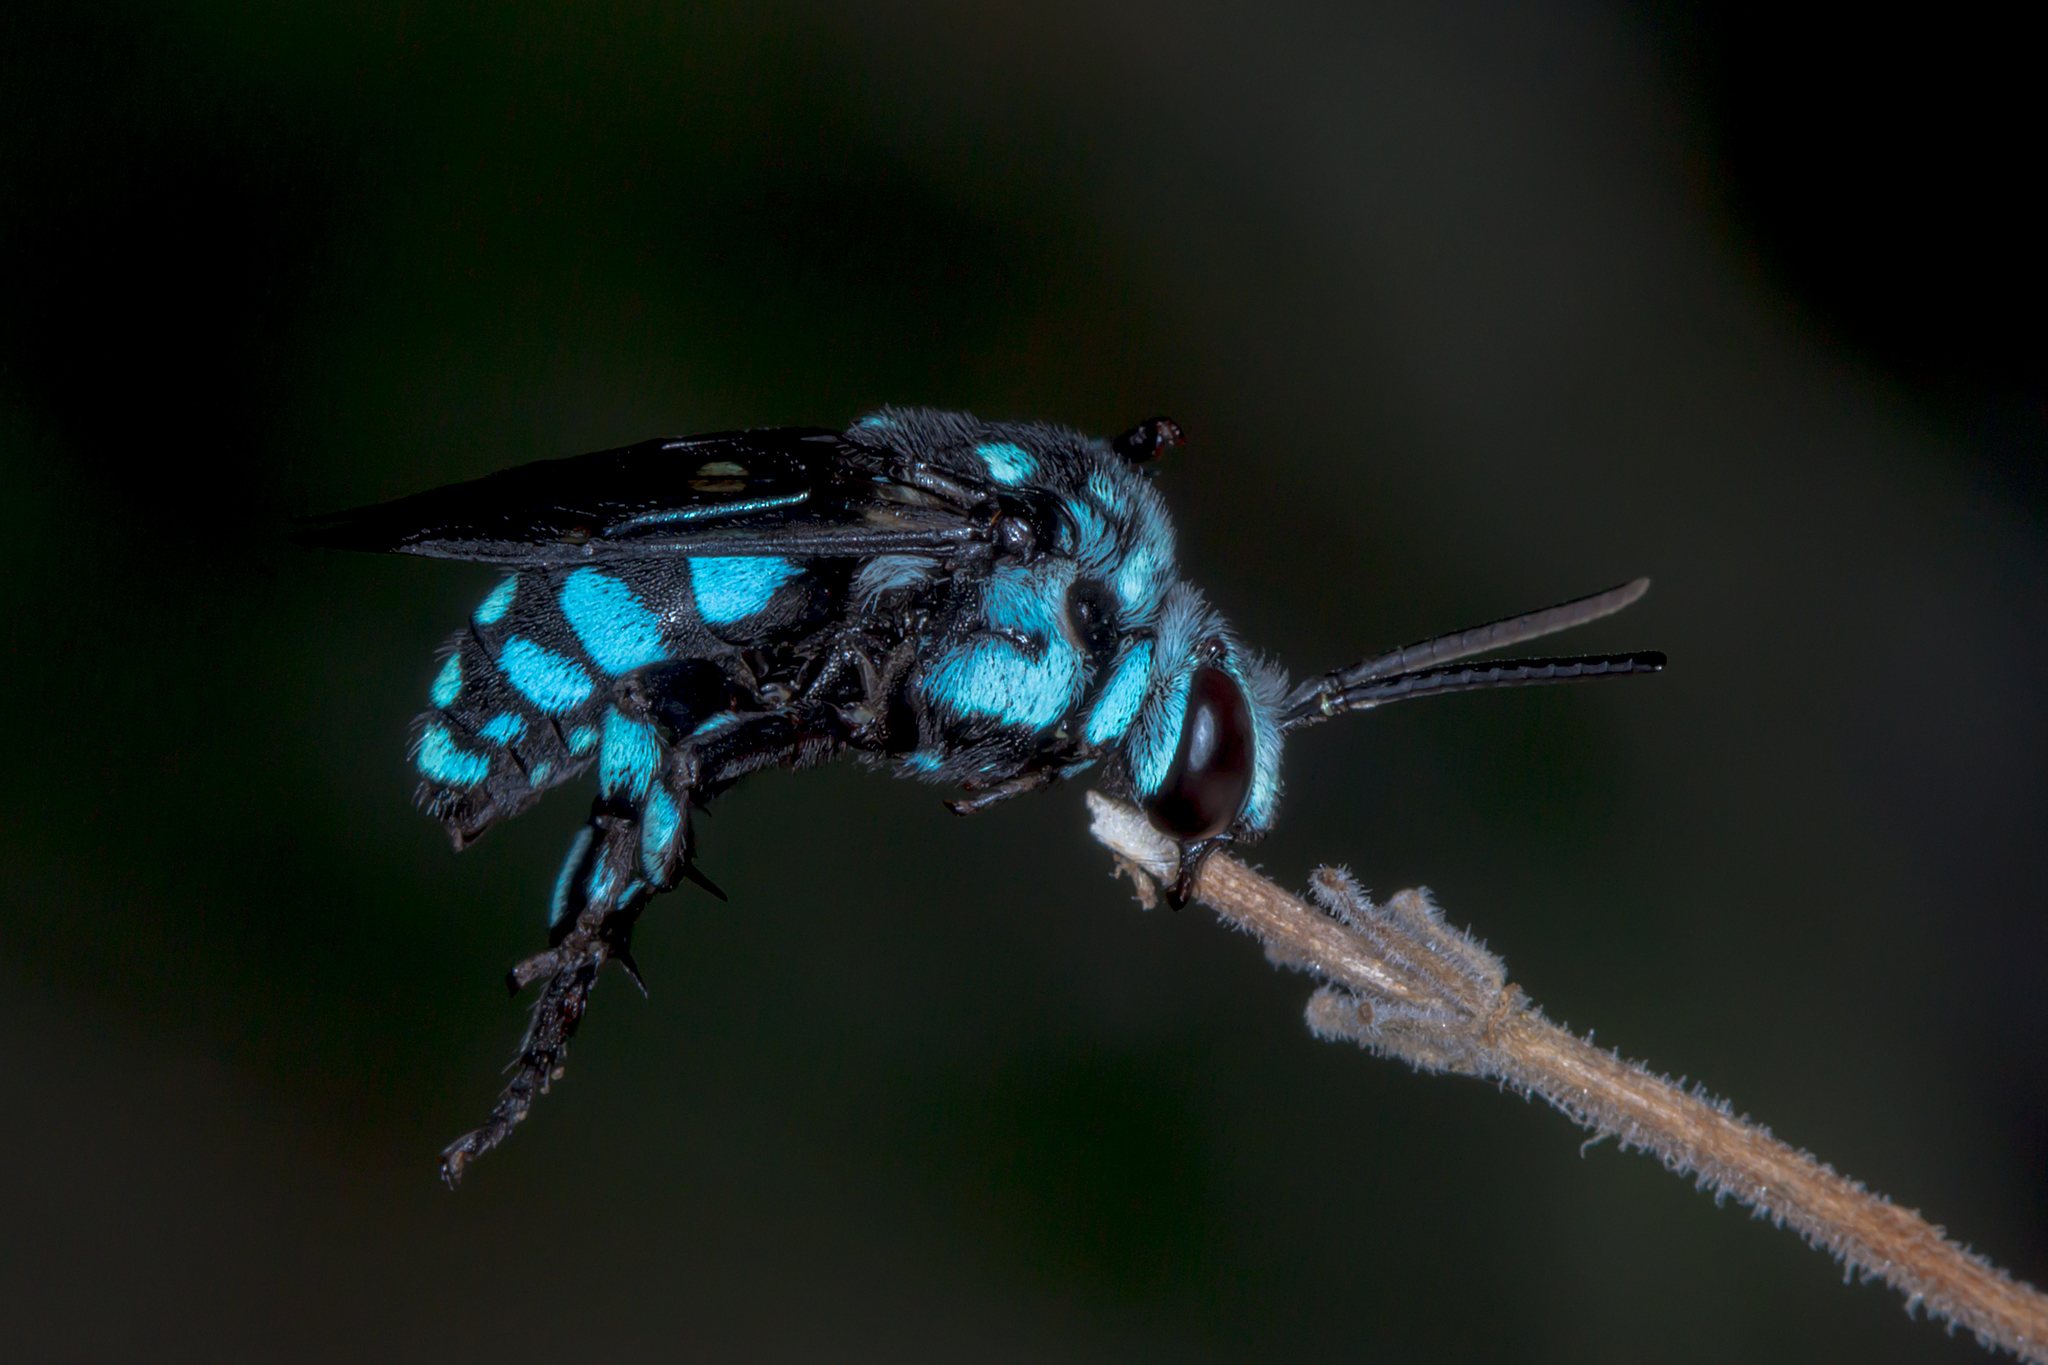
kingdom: Animalia
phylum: Arthropoda
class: Insecta
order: Hymenoptera
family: Apidae
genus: Thyreus
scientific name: Thyreus caeruleopunctatus
